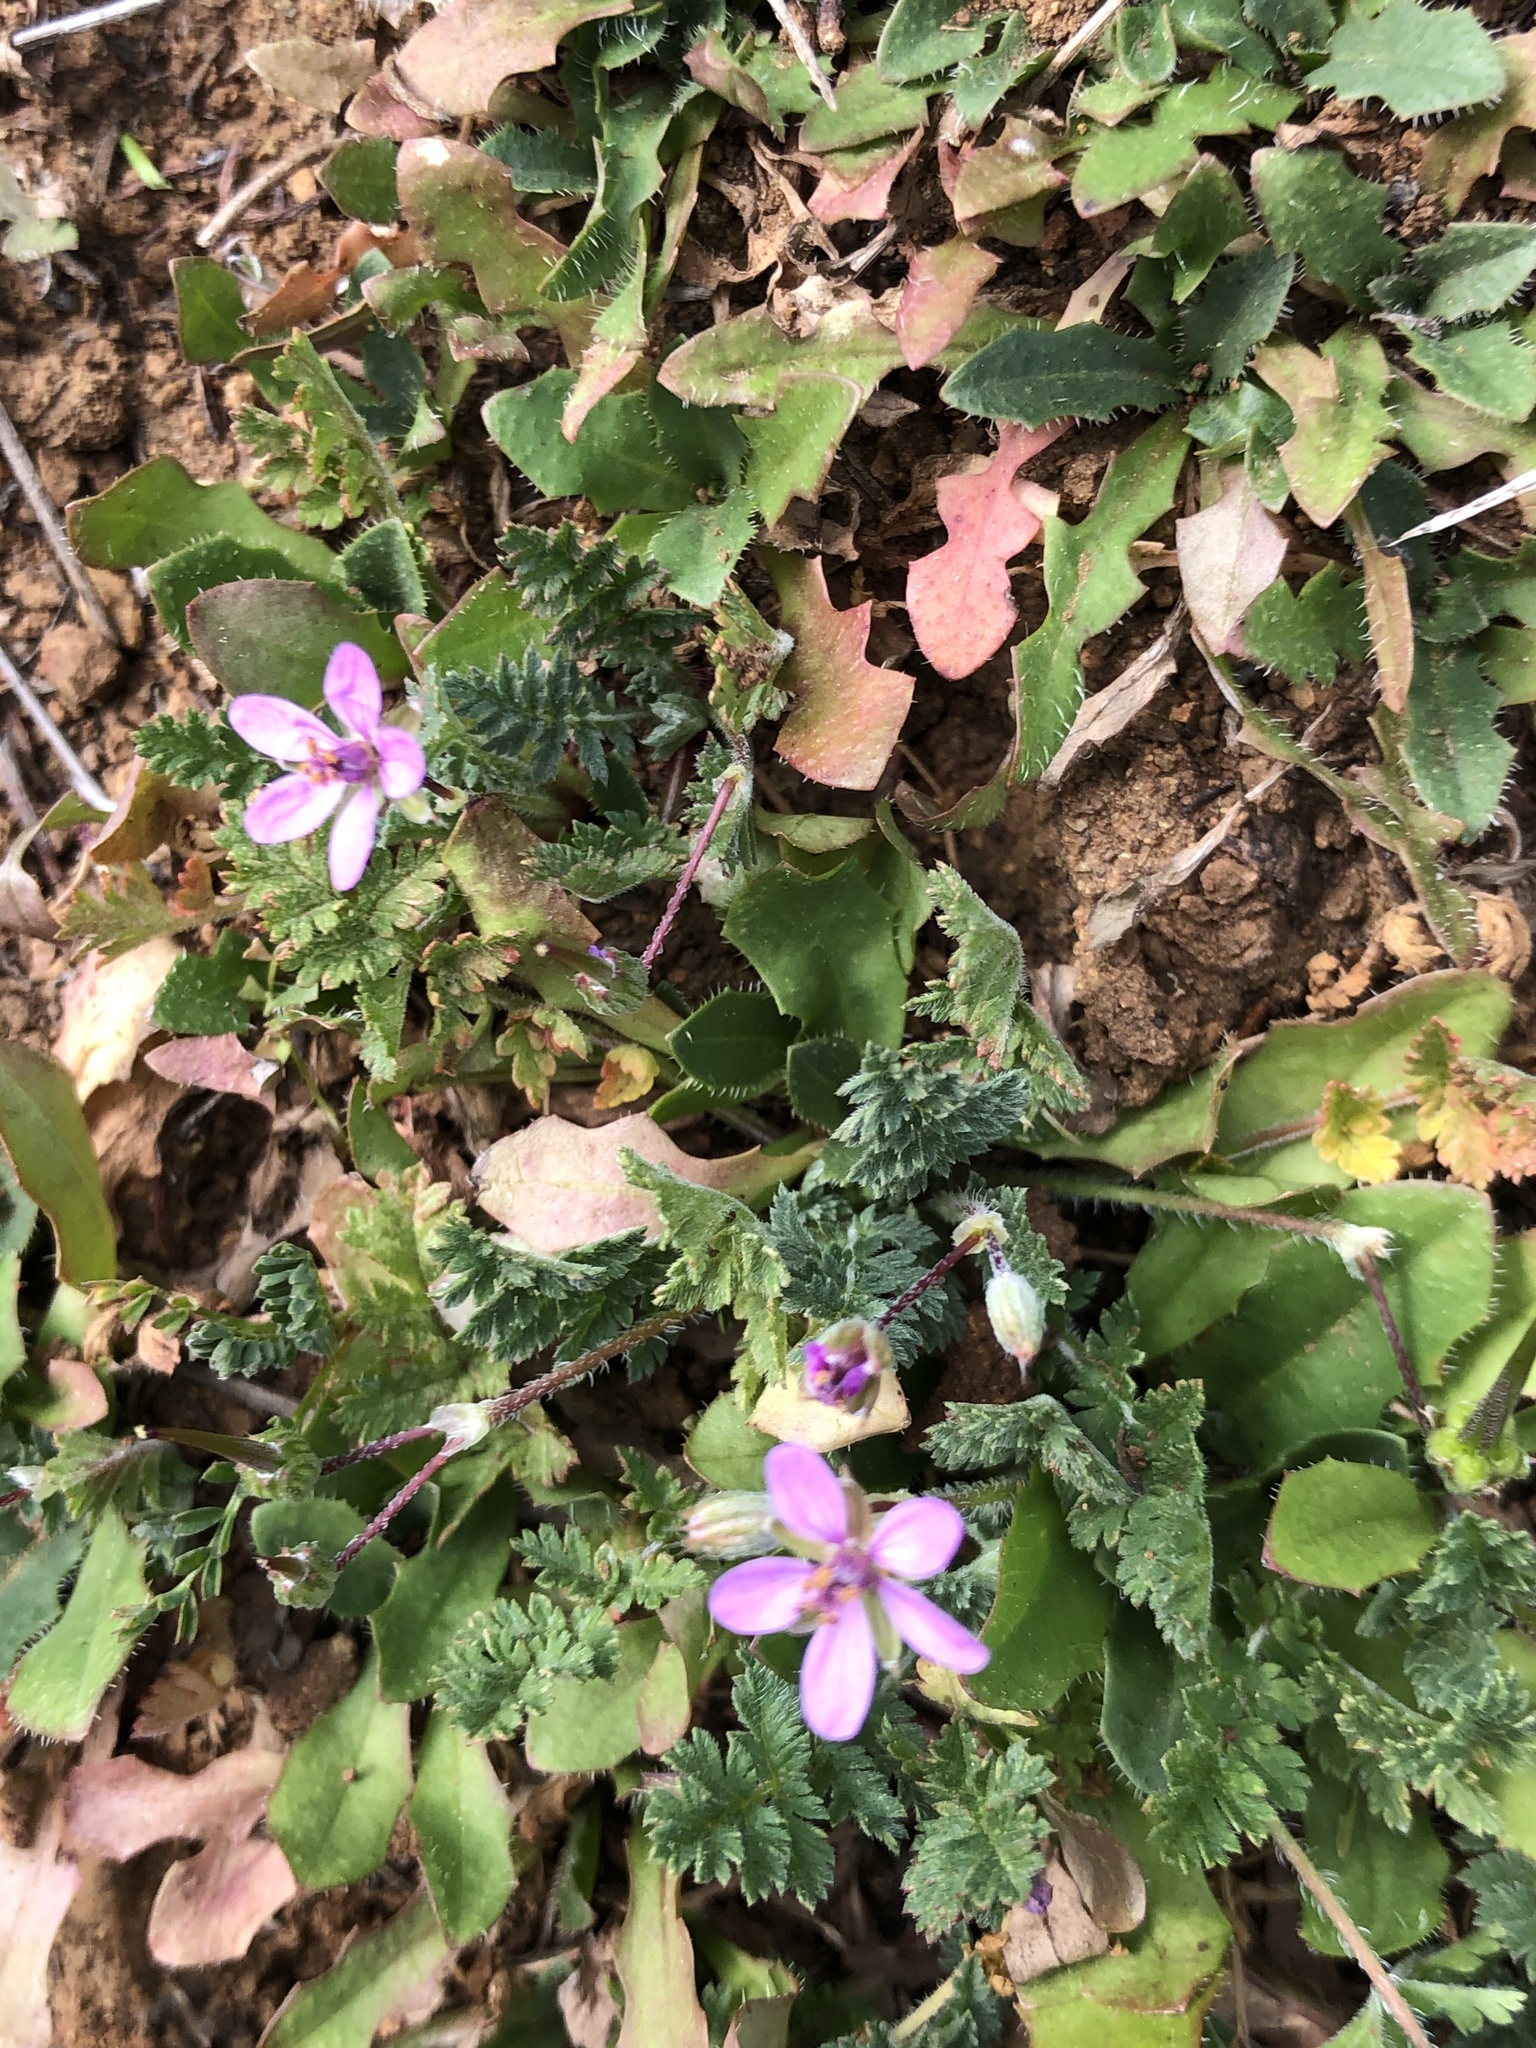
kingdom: Plantae
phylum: Tracheophyta
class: Magnoliopsida
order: Geraniales
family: Geraniaceae
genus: Erodium
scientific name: Erodium cicutarium
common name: Common stork's-bill
